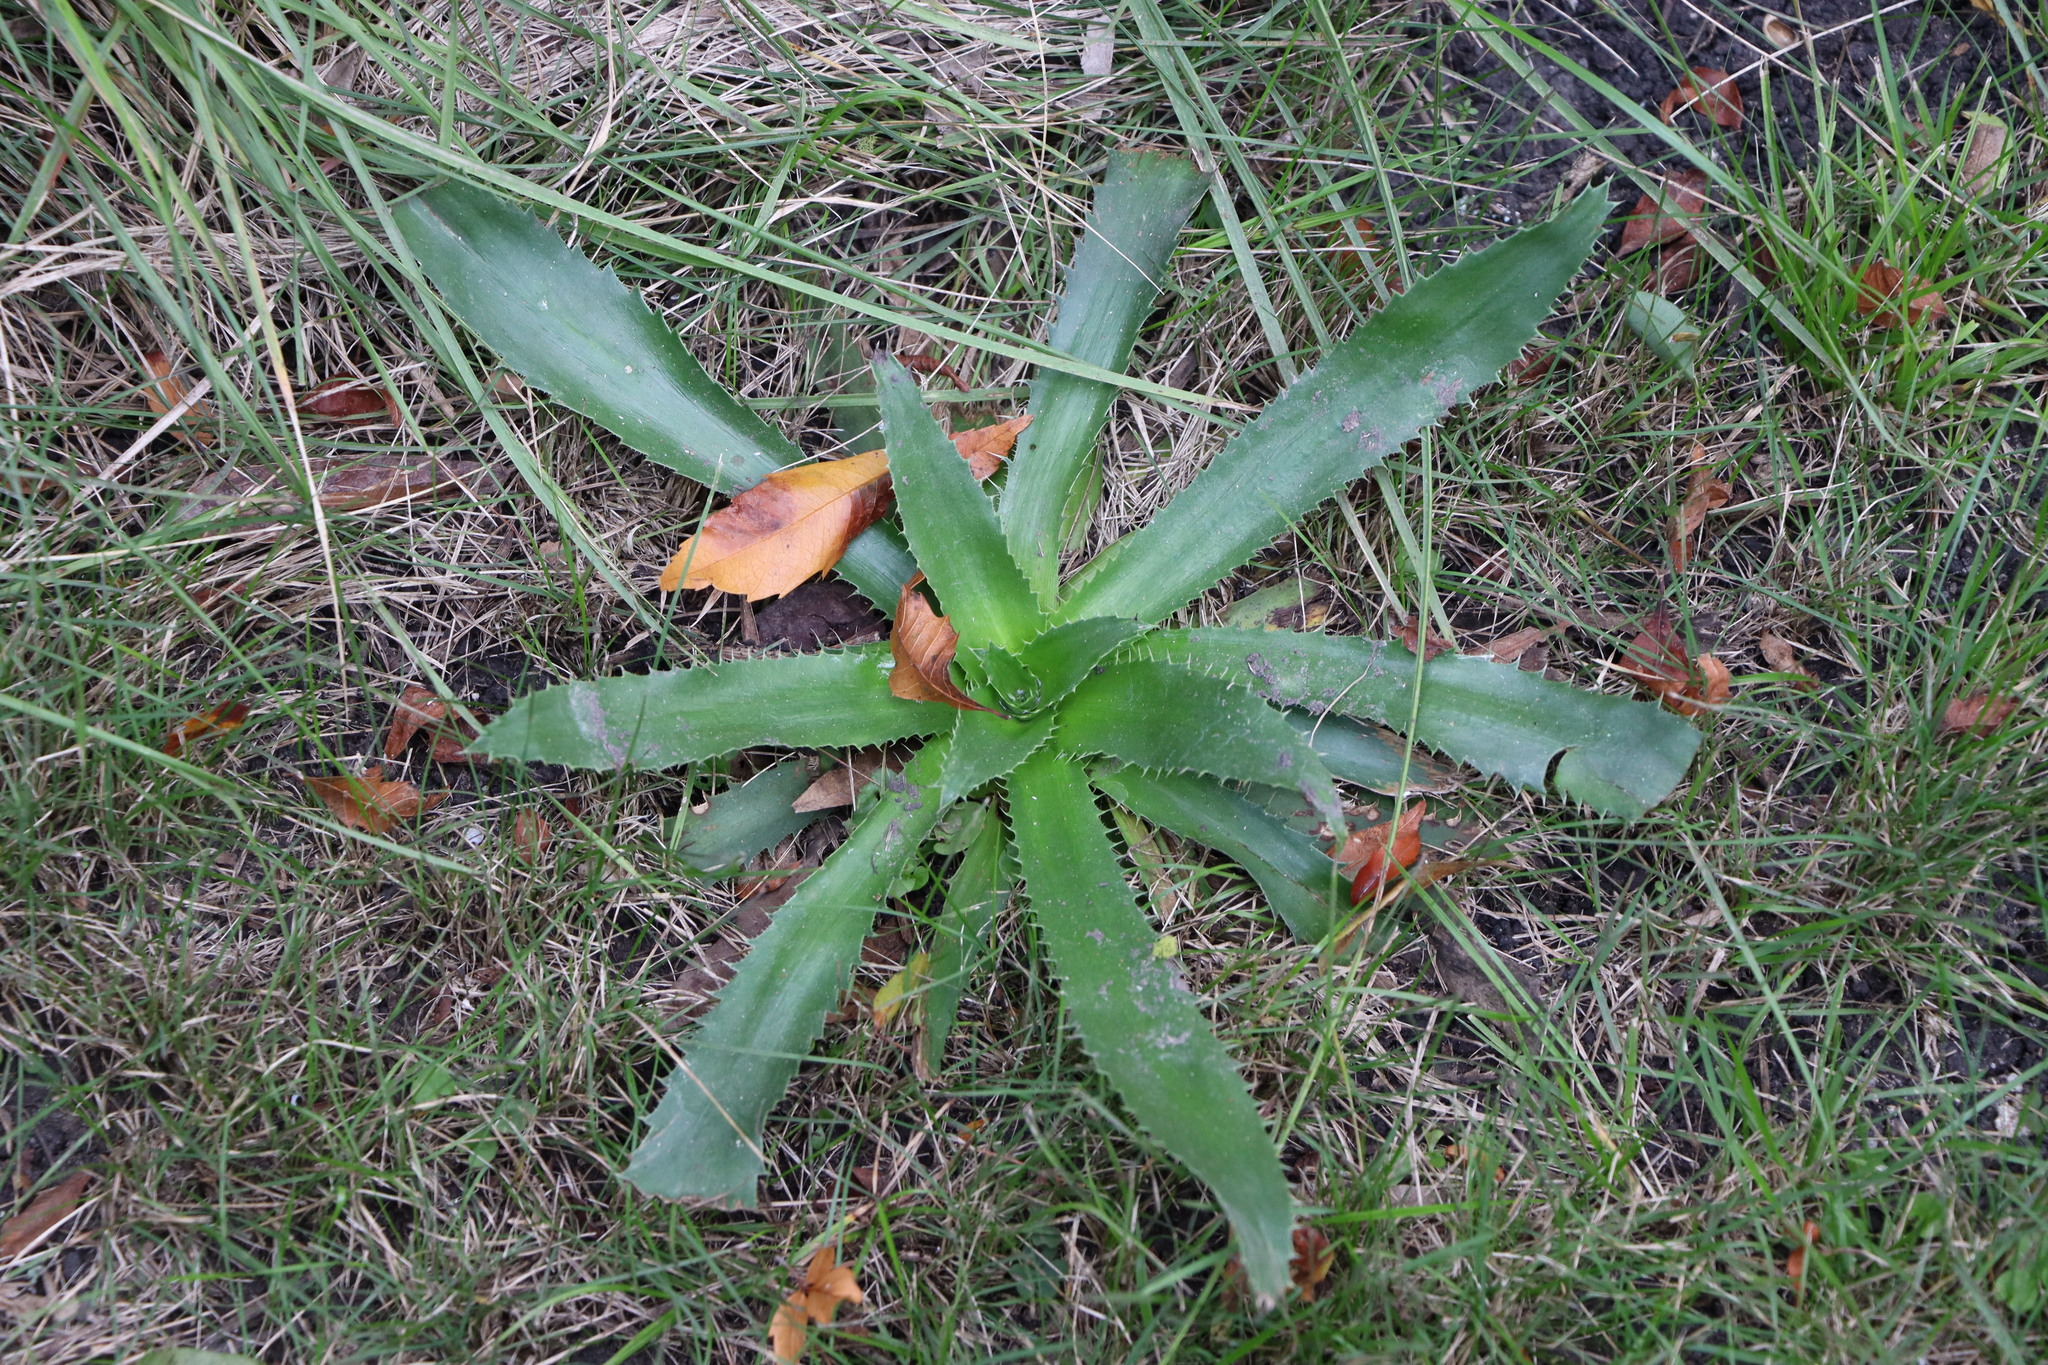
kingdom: Plantae
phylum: Tracheophyta
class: Magnoliopsida
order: Apiales
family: Apiaceae
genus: Eryngium
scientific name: Eryngium serra
